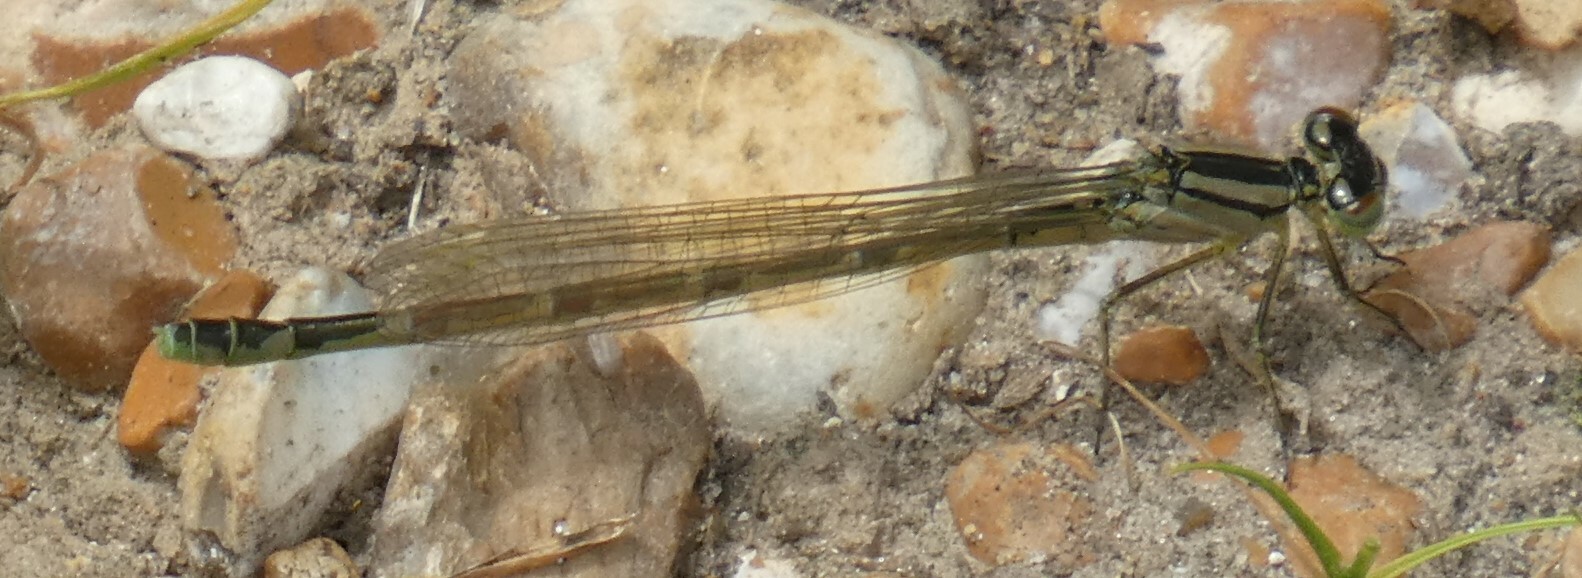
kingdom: Animalia
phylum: Arthropoda
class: Insecta
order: Odonata
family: Coenagrionidae
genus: Enallagma
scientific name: Enallagma cyathigerum
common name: Common blue damselfly
